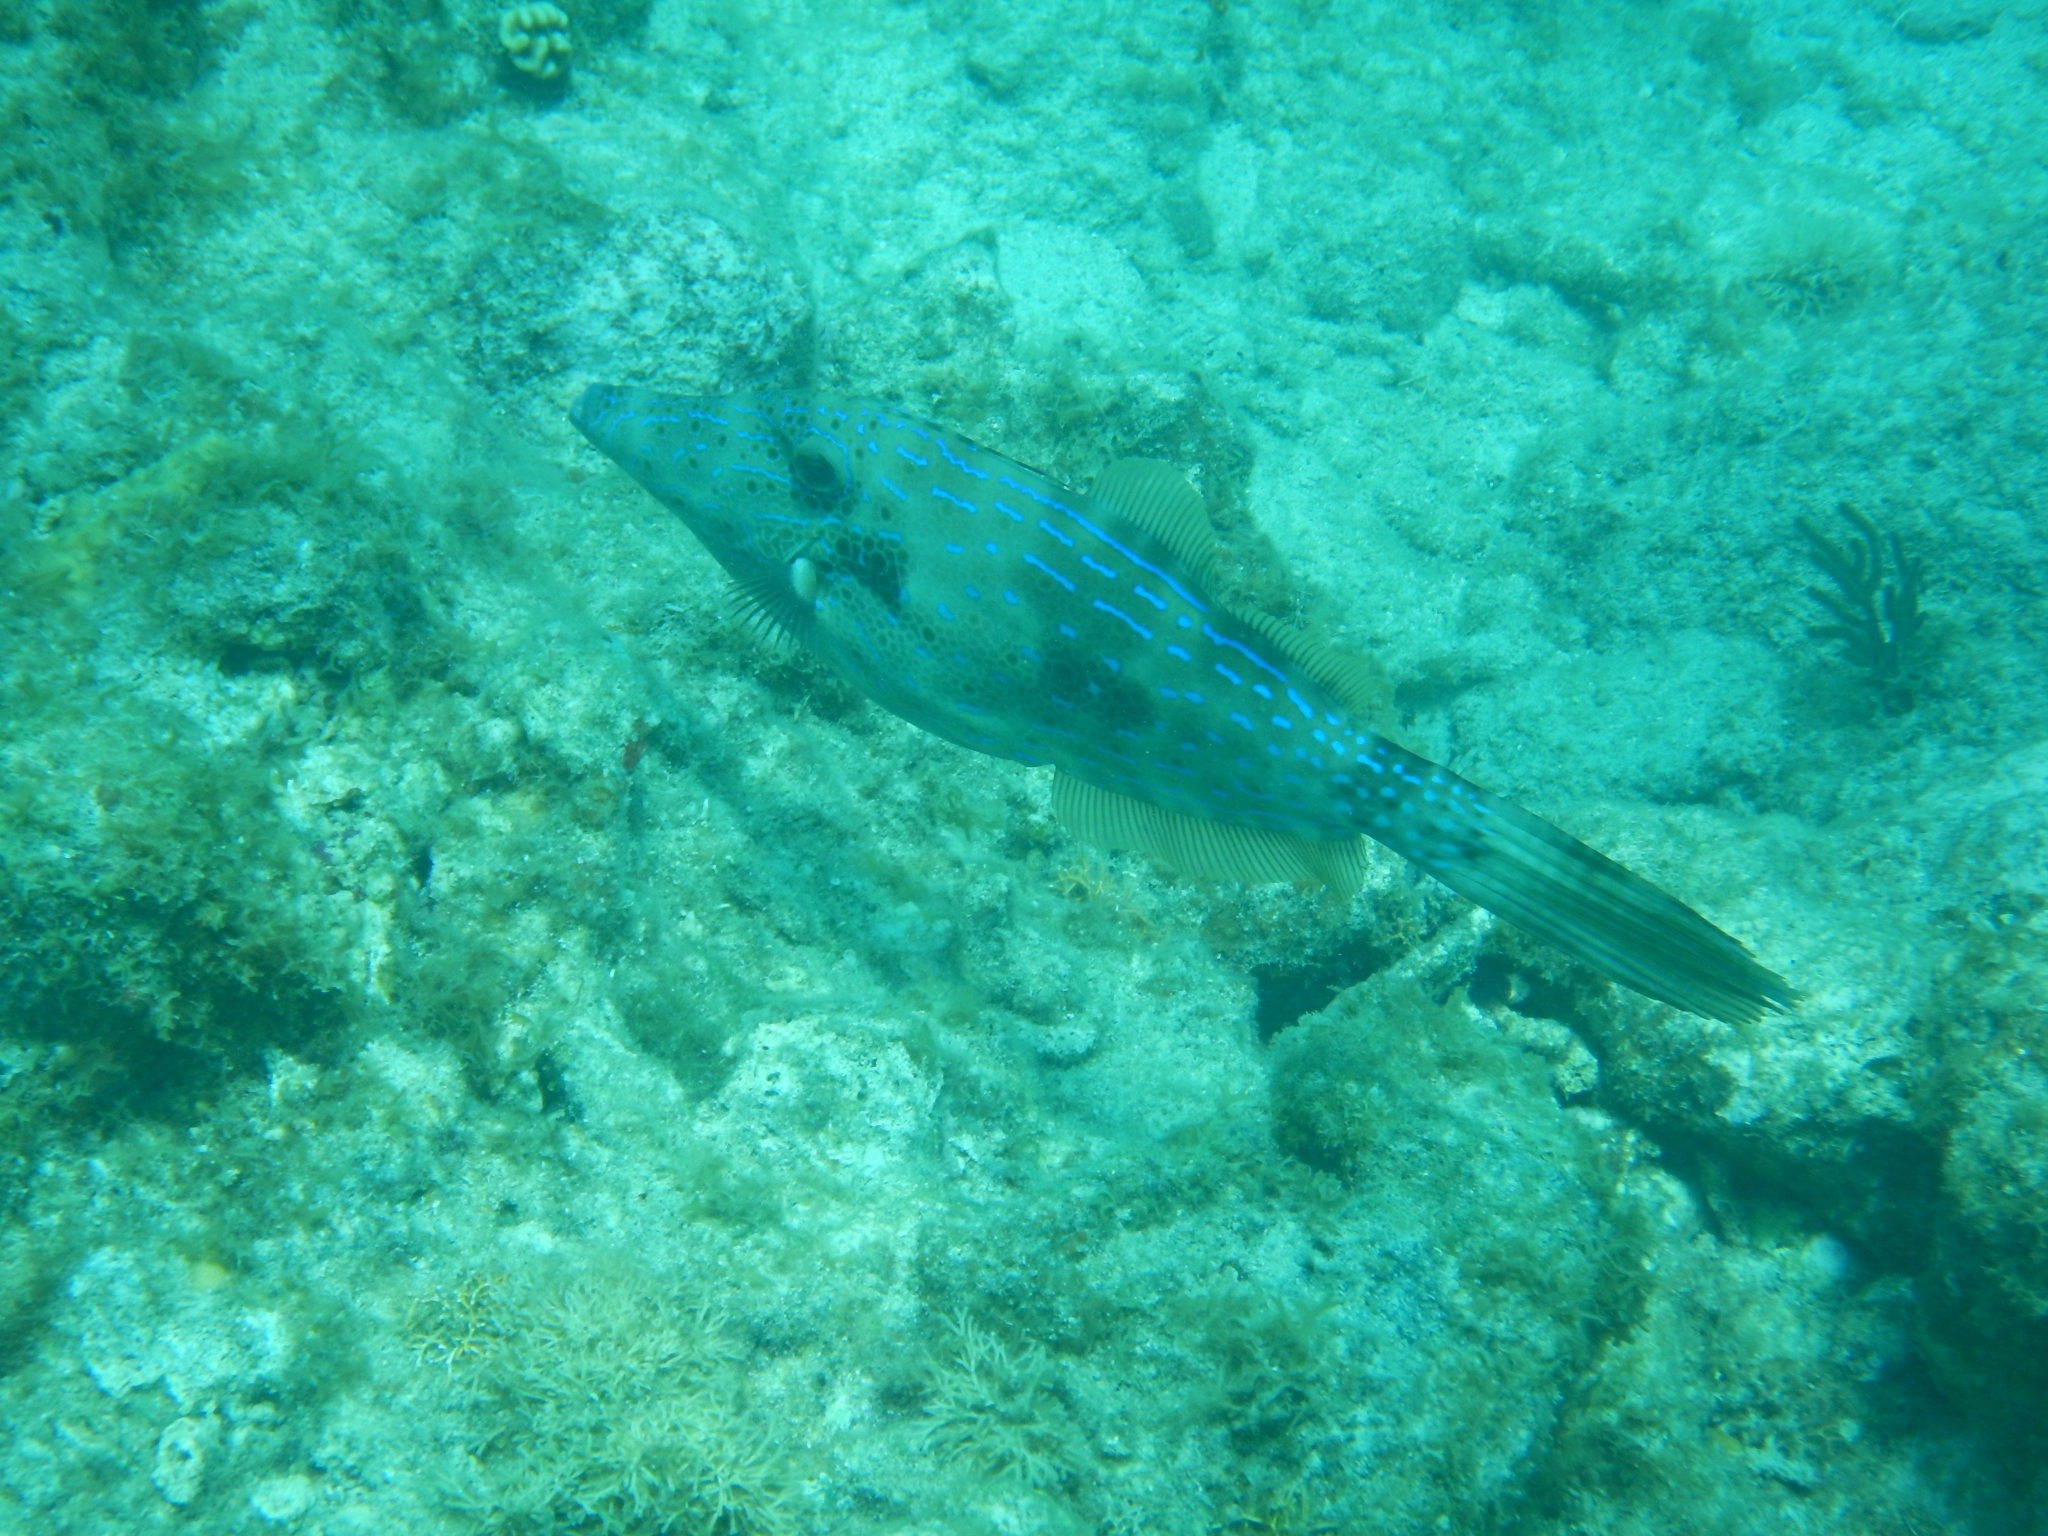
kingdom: Animalia
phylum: Chordata
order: Tetraodontiformes
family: Monacanthidae
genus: Aluterus
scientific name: Aluterus scriptus
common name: Scribbled leatherjacket filefish
